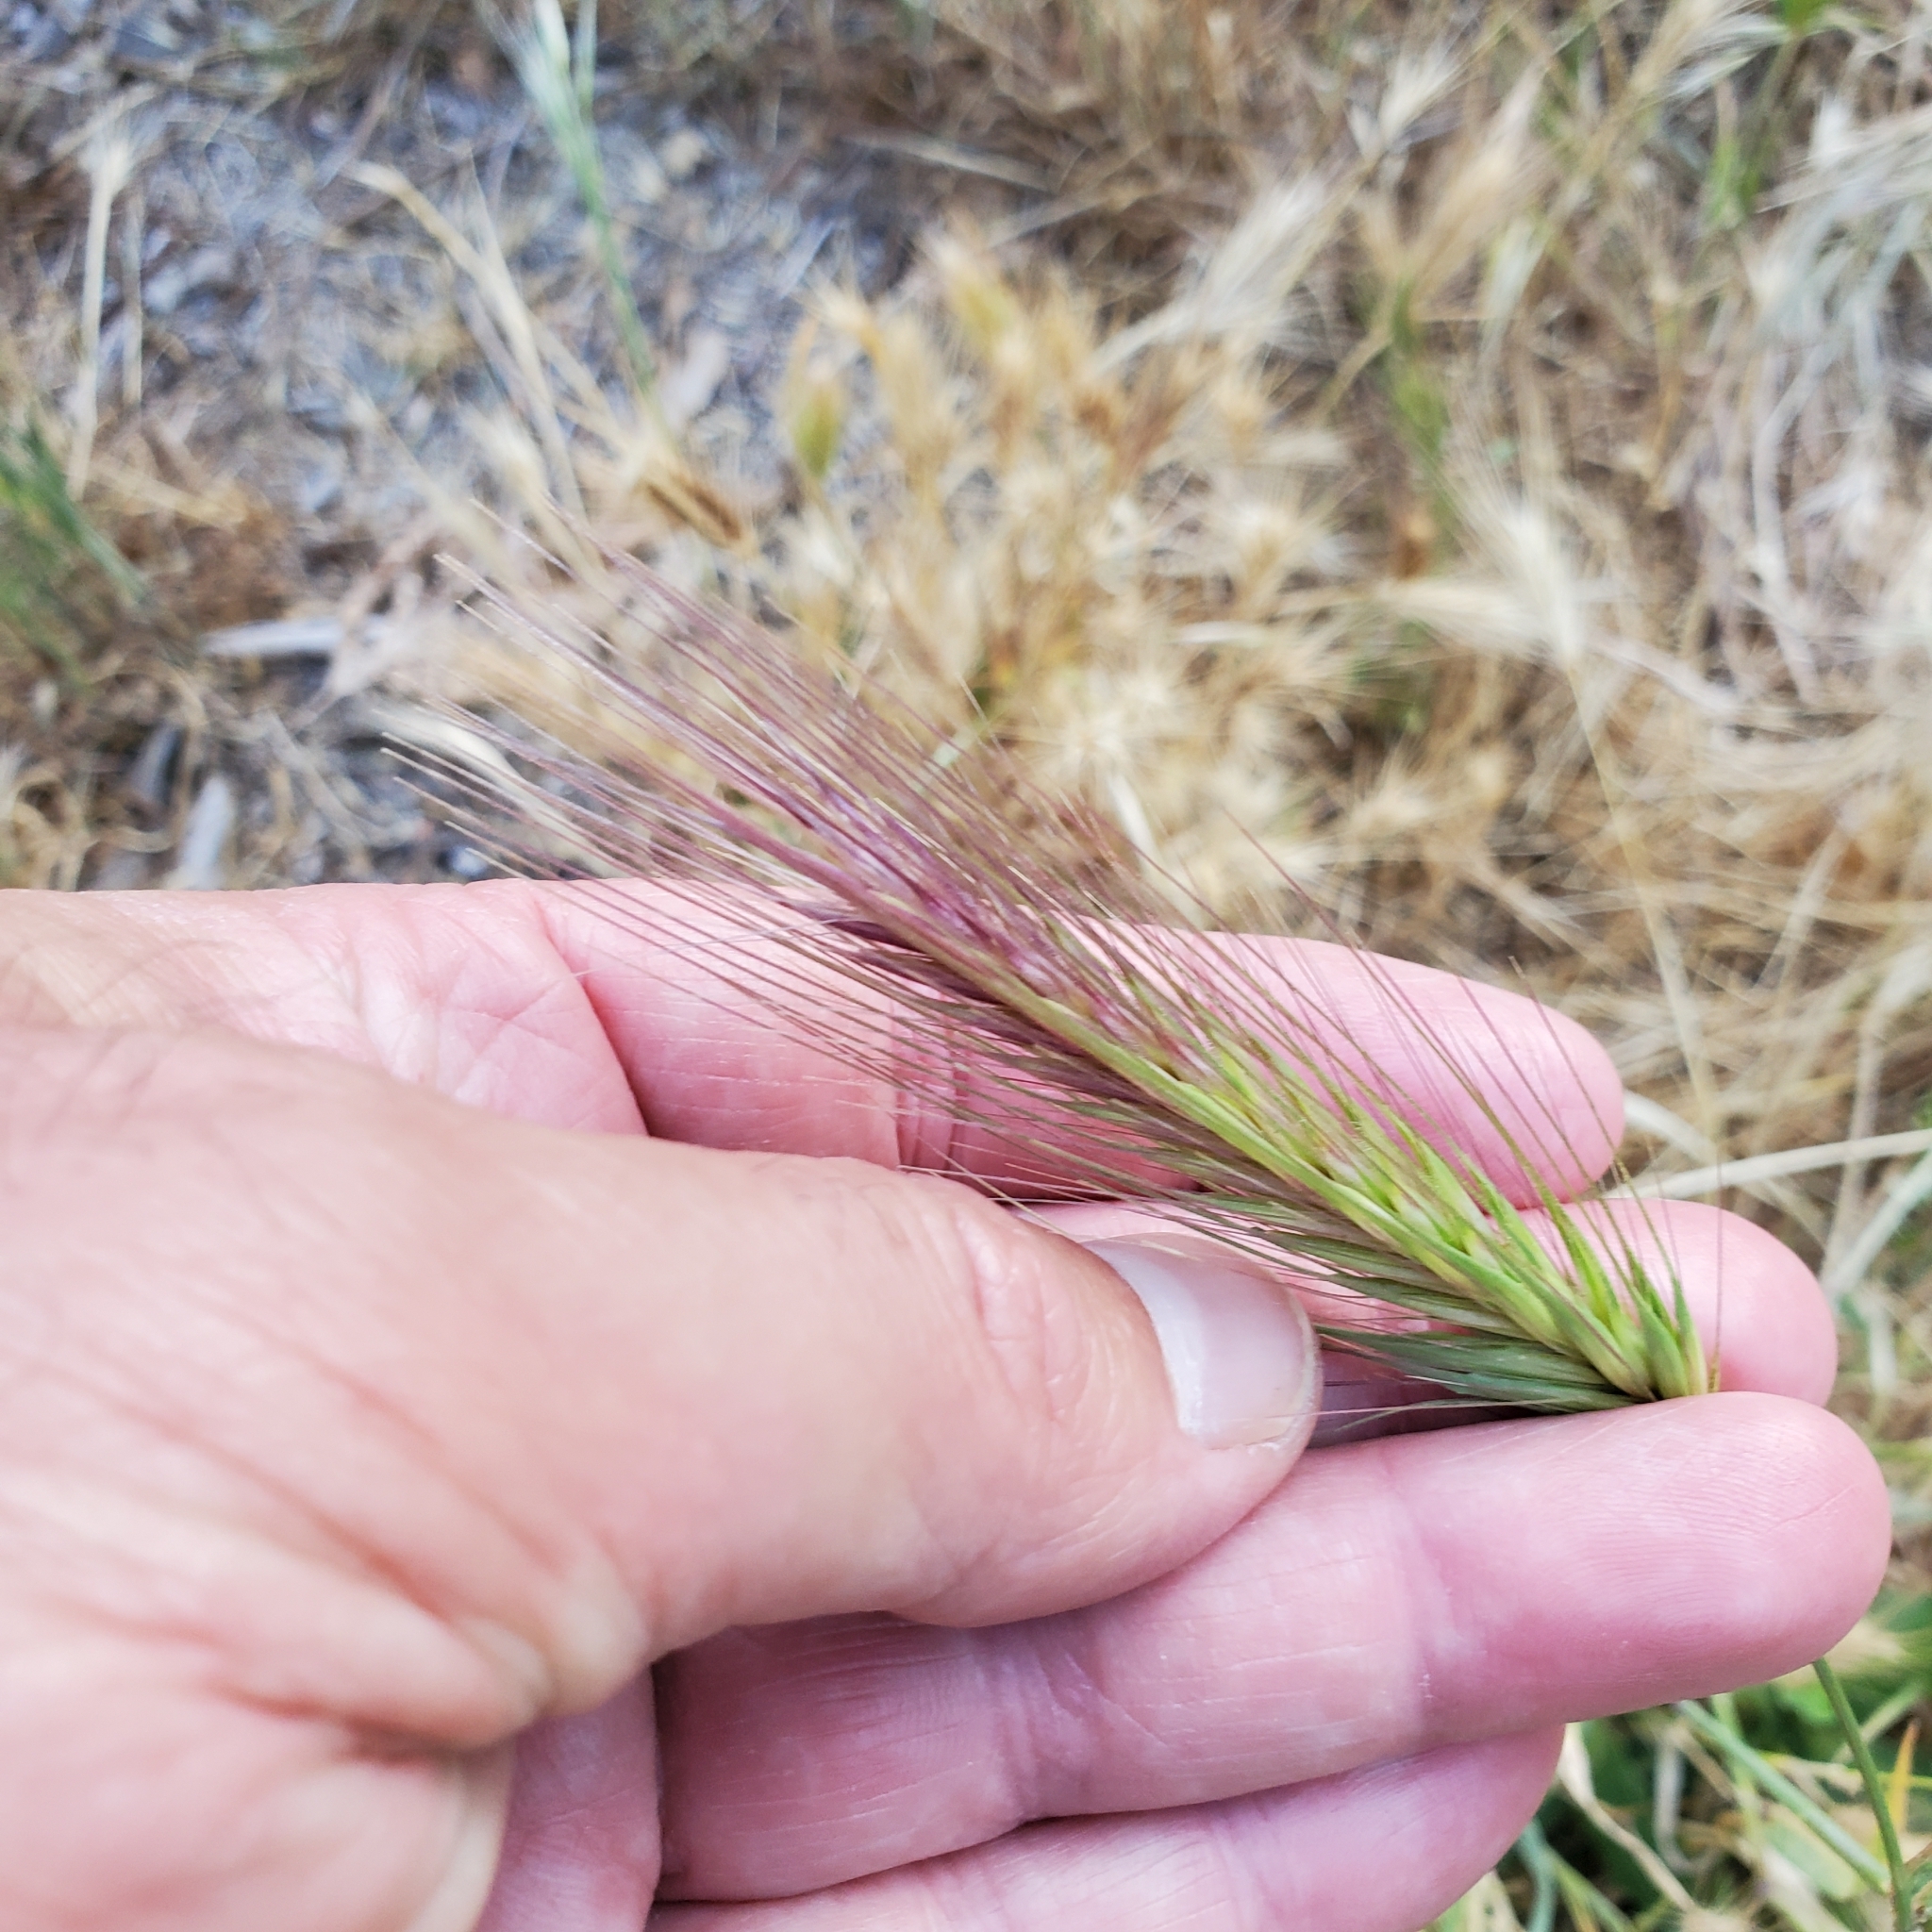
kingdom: Plantae
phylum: Tracheophyta
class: Liliopsida
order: Poales
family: Poaceae
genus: Hordeum
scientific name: Hordeum murinum
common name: Wall barley
